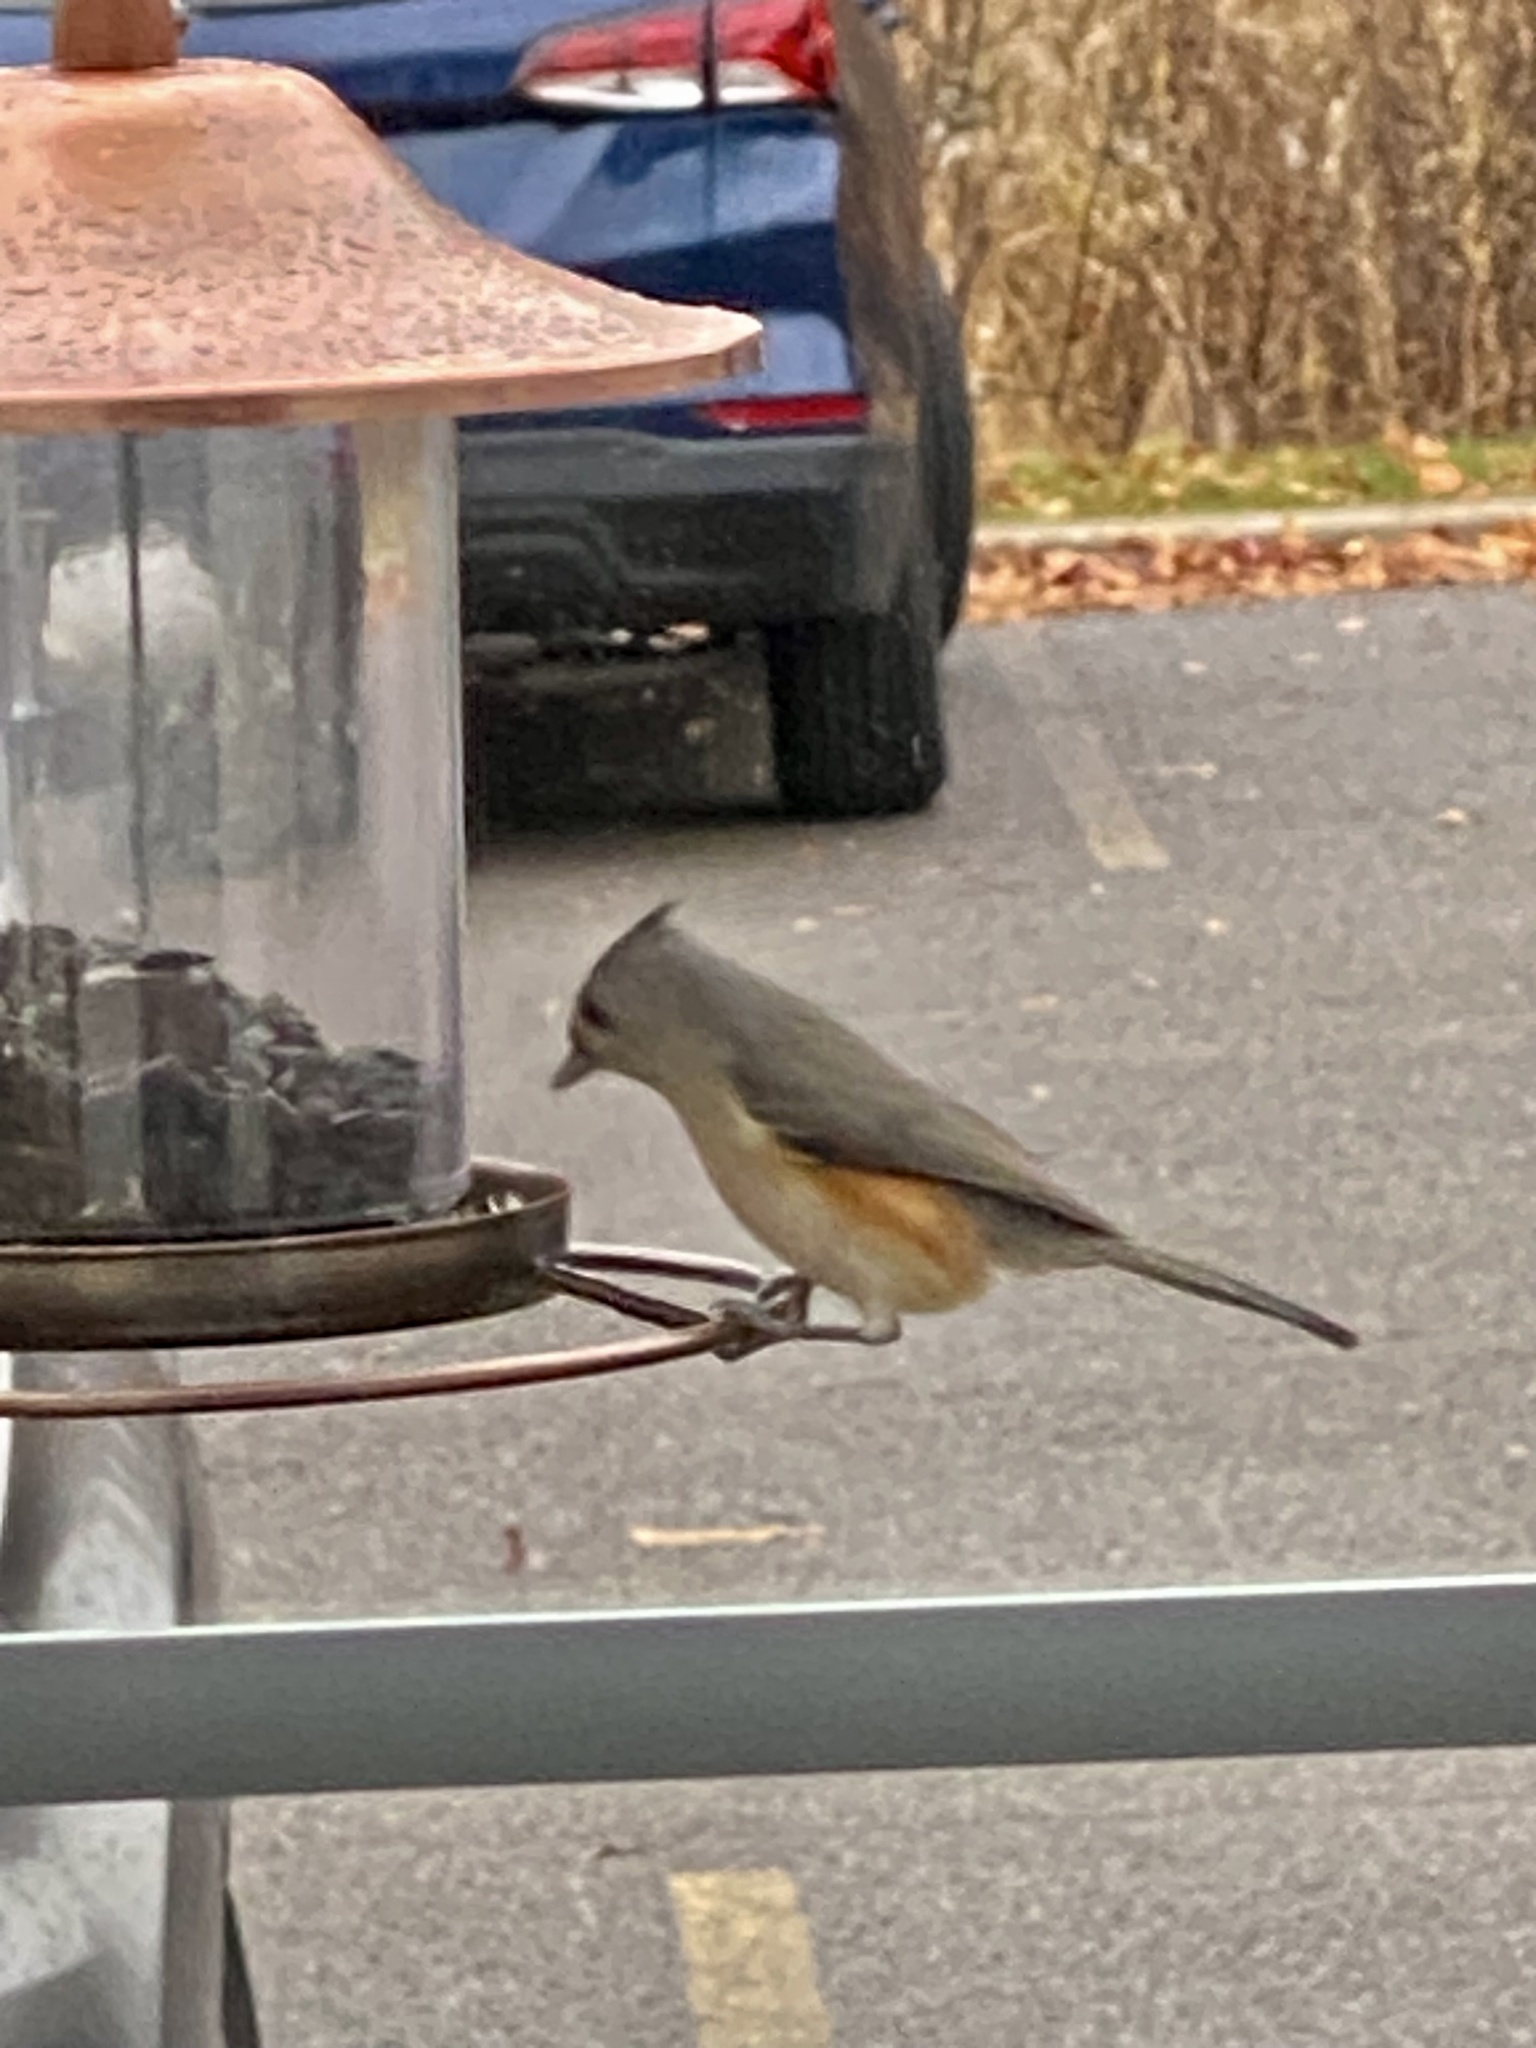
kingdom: Animalia
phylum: Chordata
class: Aves
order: Passeriformes
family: Paridae
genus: Baeolophus
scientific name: Baeolophus bicolor
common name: Tufted titmouse
